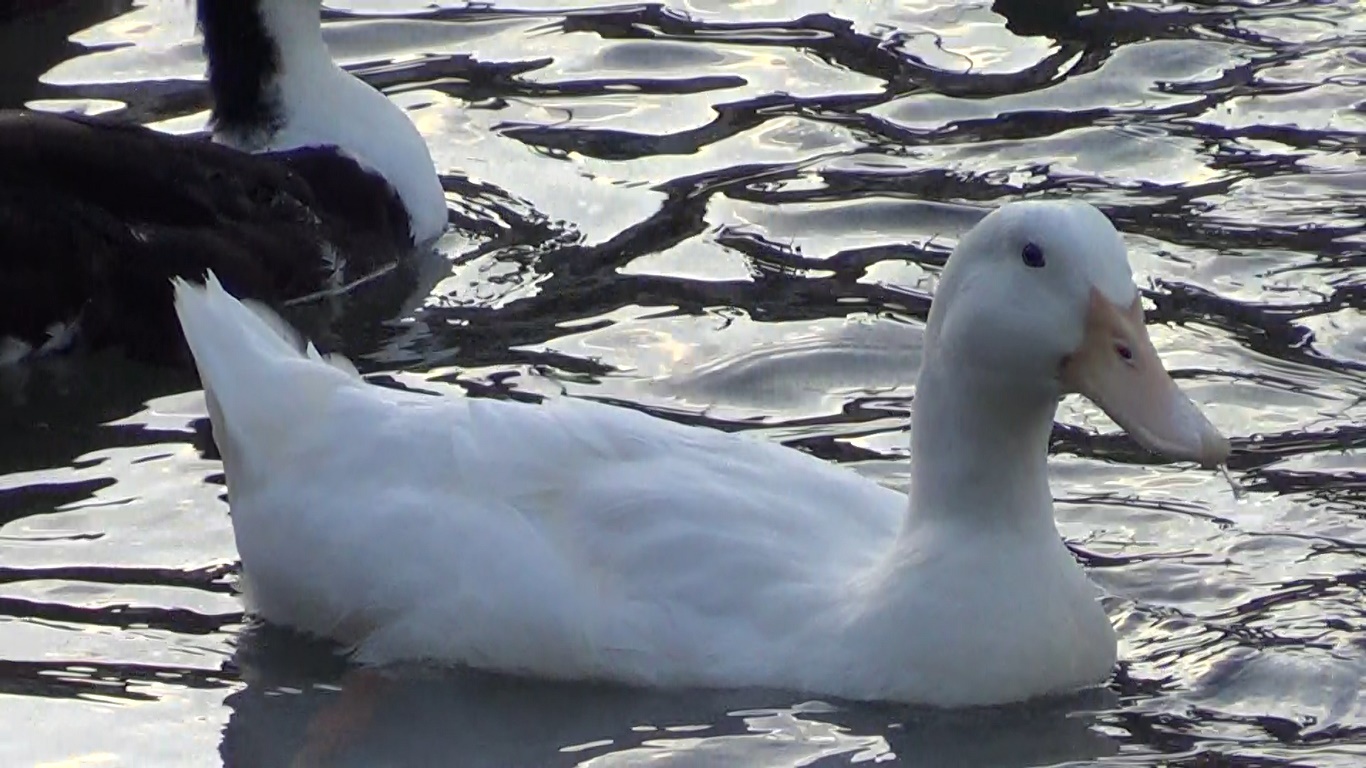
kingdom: Animalia
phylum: Chordata
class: Aves
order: Anseriformes
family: Anatidae
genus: Anas
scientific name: Anas platyrhynchos
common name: Mallard
